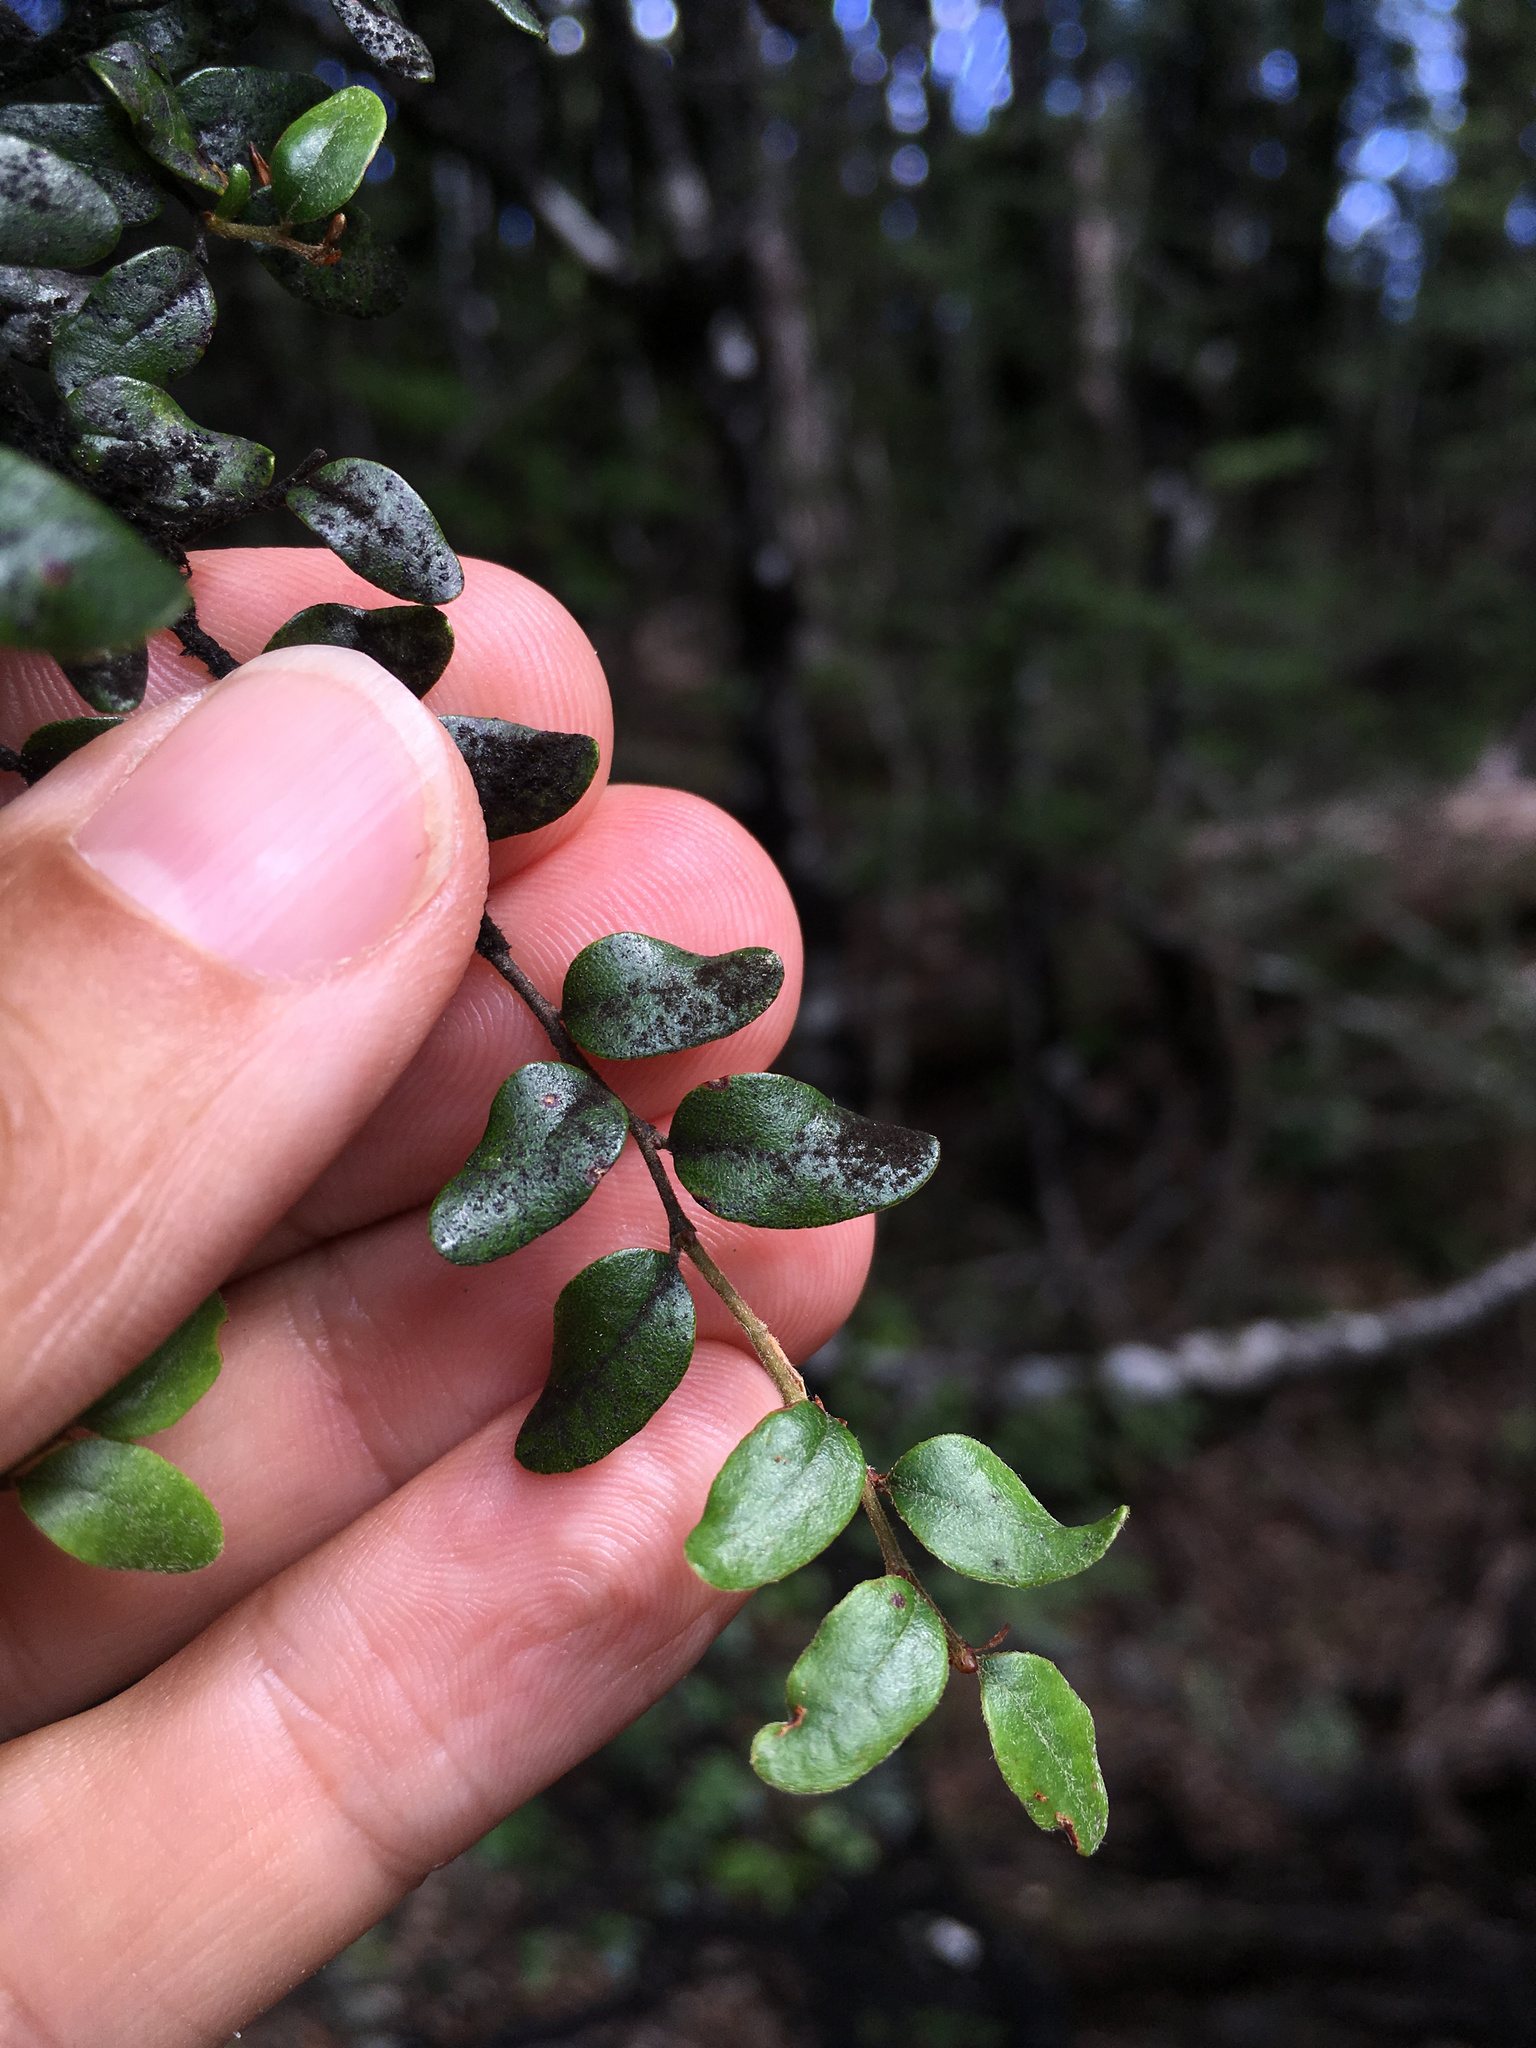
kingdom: Plantae
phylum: Tracheophyta
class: Magnoliopsida
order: Fagales
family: Nothofagaceae
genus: Nothofagus
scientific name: Nothofagus solandri
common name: Black beech
